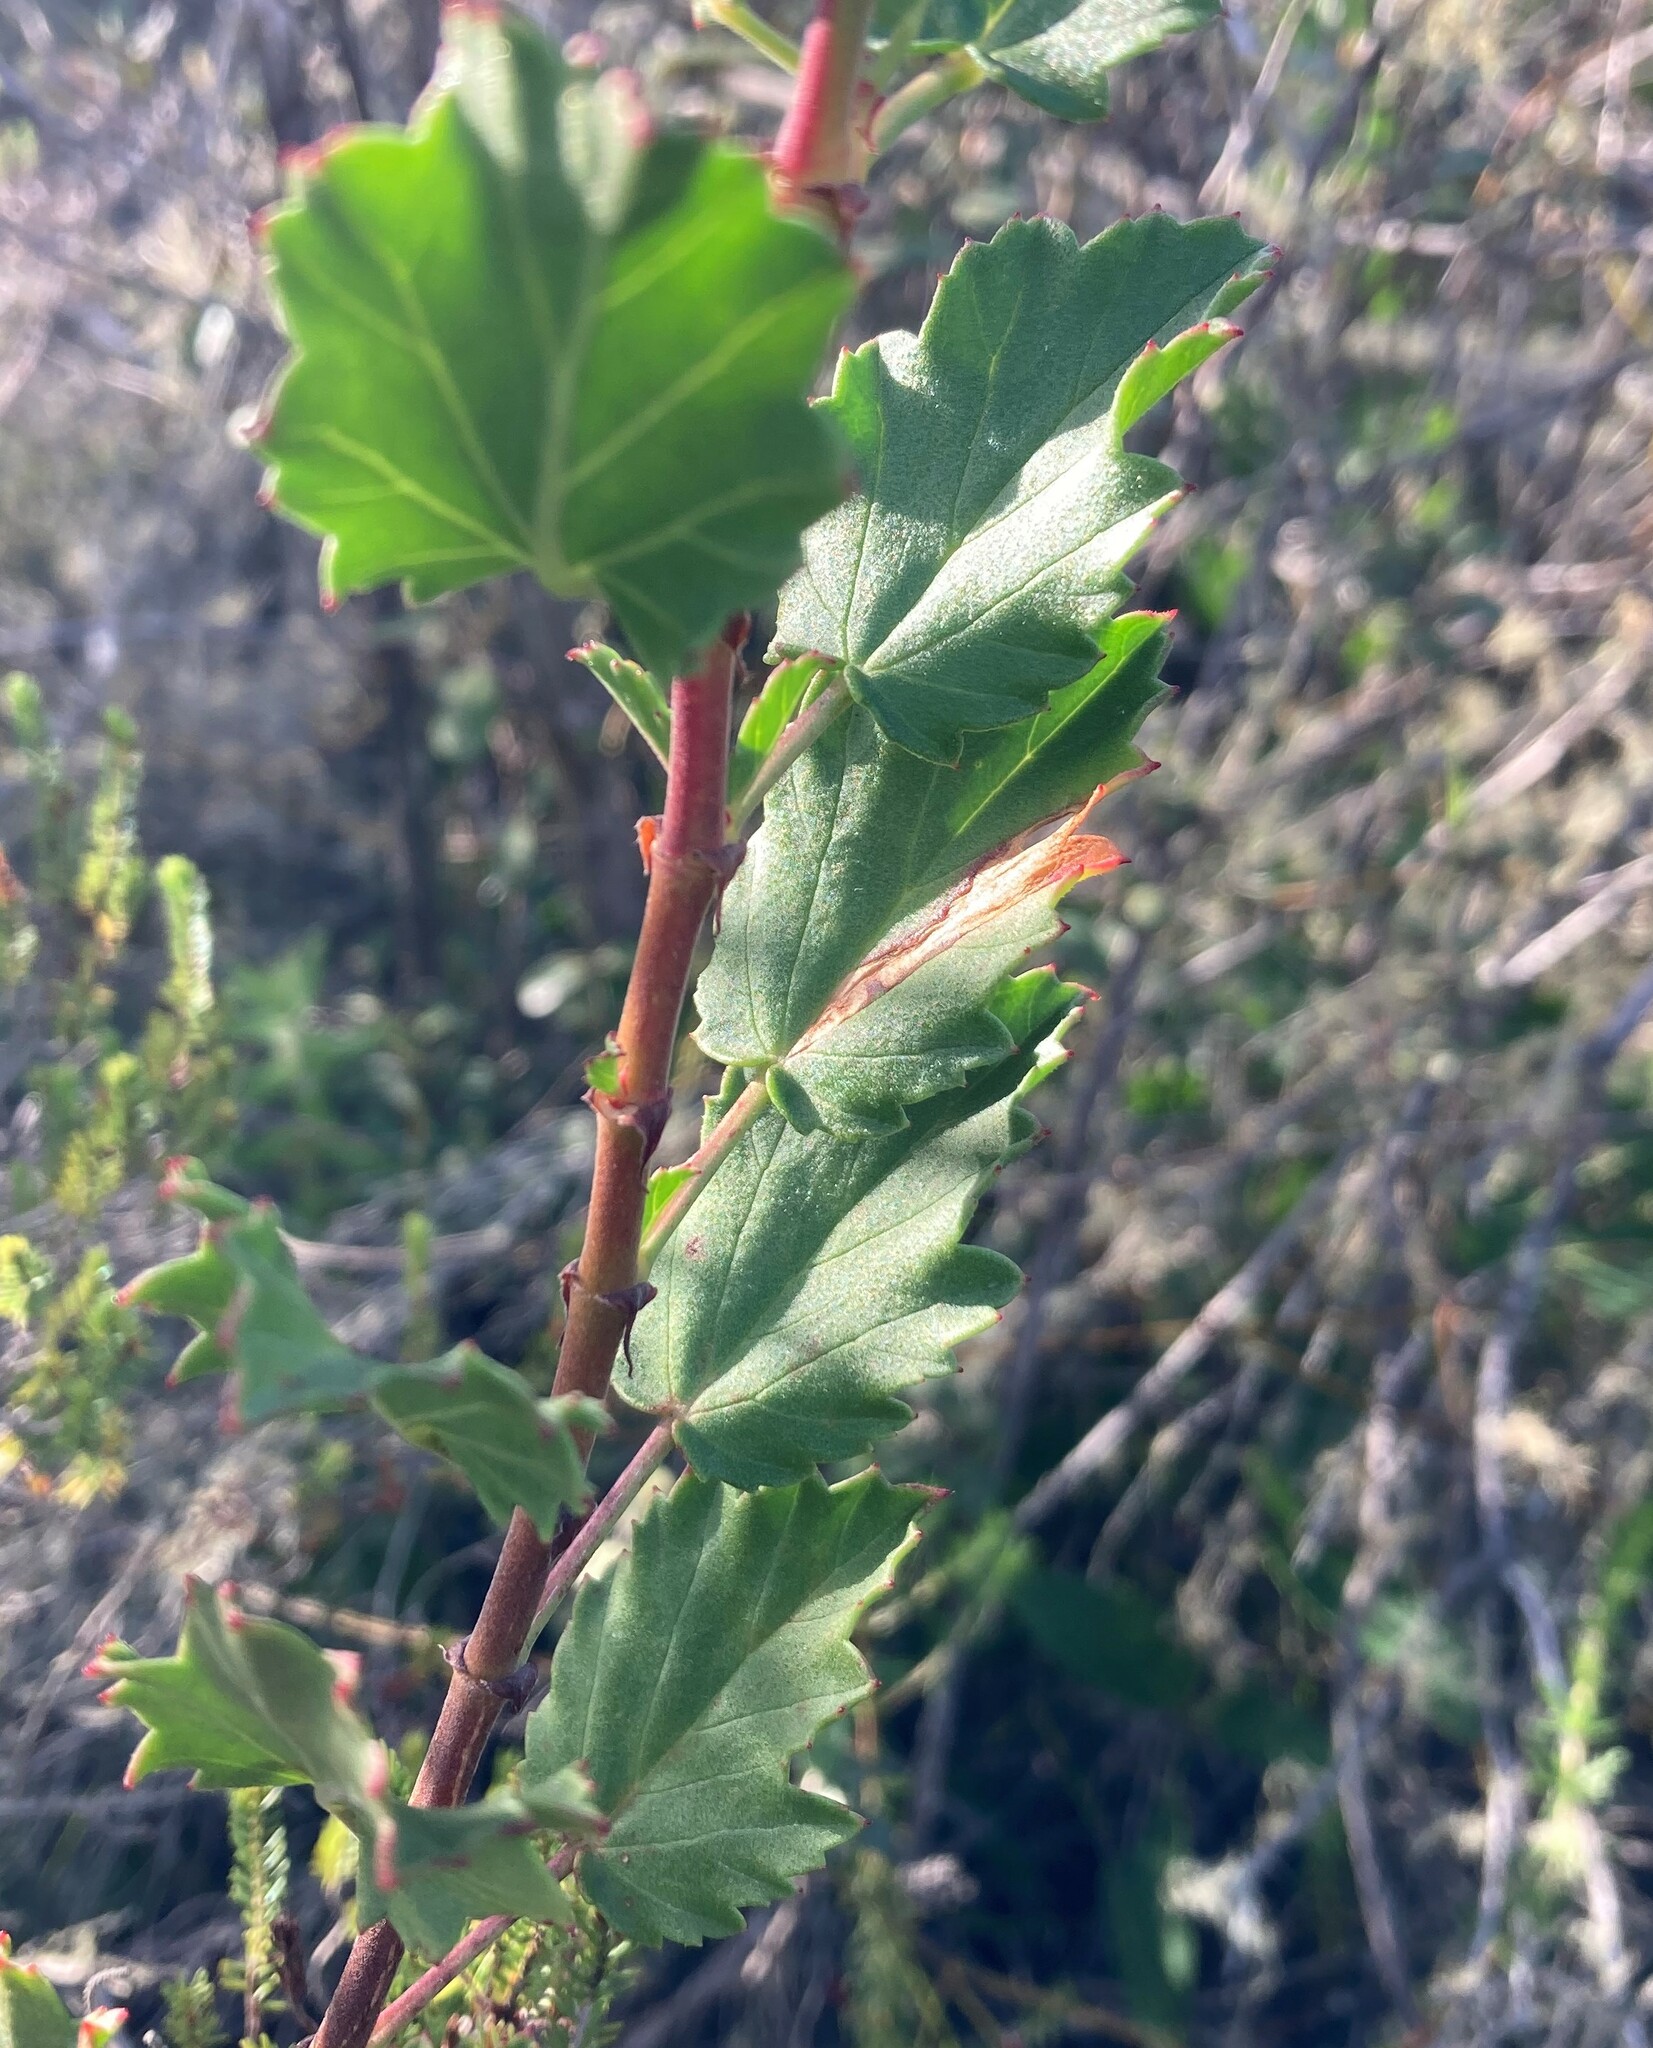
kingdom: Plantae
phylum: Tracheophyta
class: Magnoliopsida
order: Geraniales
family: Geraniaceae
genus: Pelargonium
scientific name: Pelargonium betulinum
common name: Birch-leaf pelargonium
